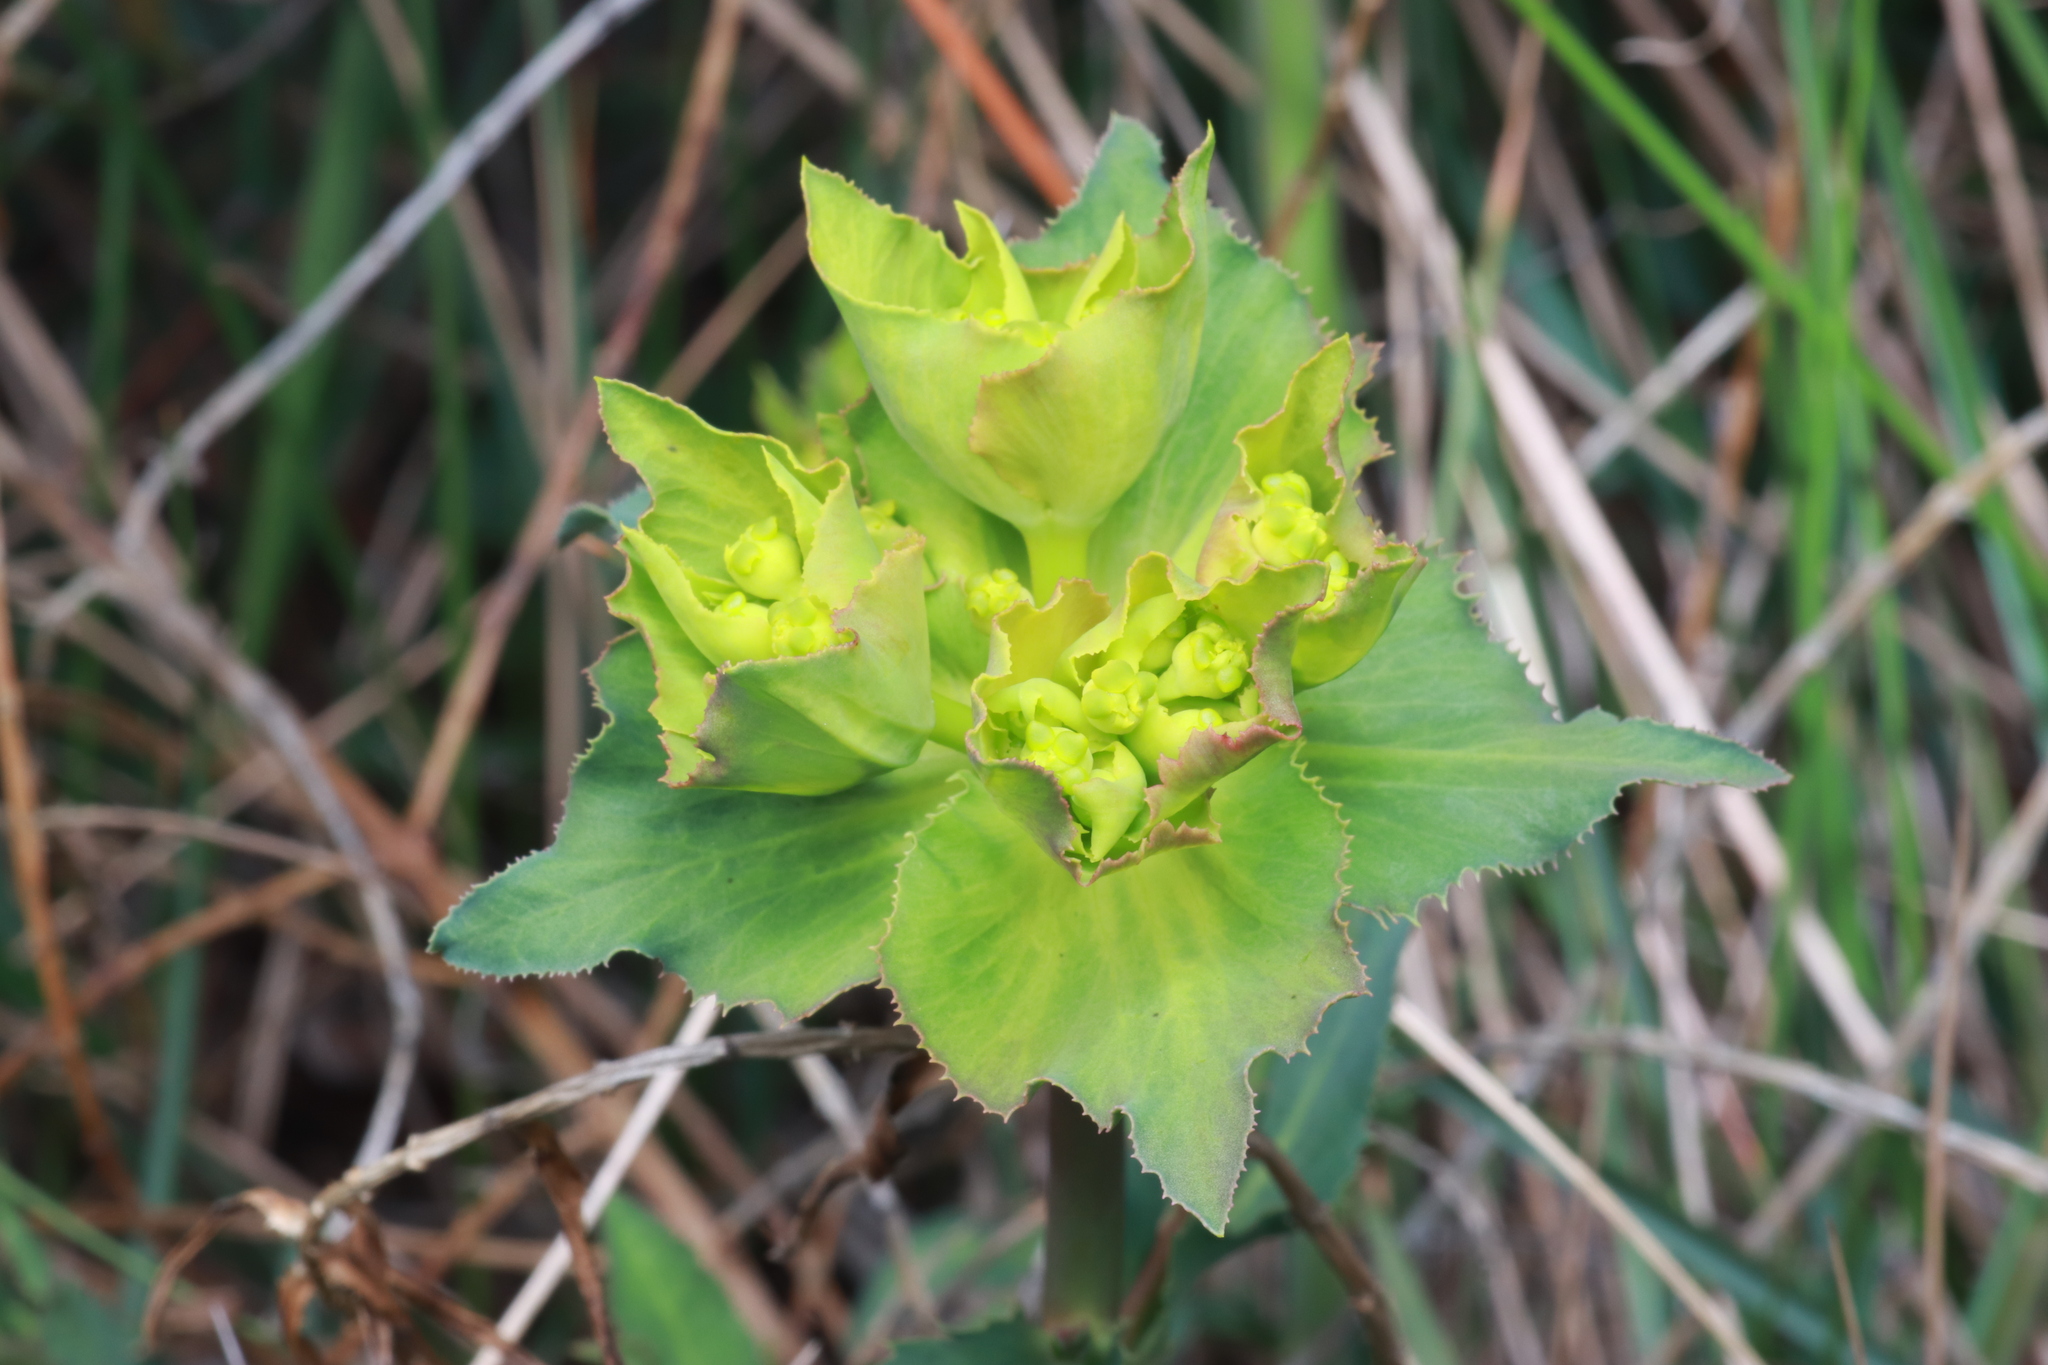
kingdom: Plantae
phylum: Tracheophyta
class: Magnoliopsida
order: Malpighiales
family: Euphorbiaceae
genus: Euphorbia
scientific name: Euphorbia serrata
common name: Serrate spurge
